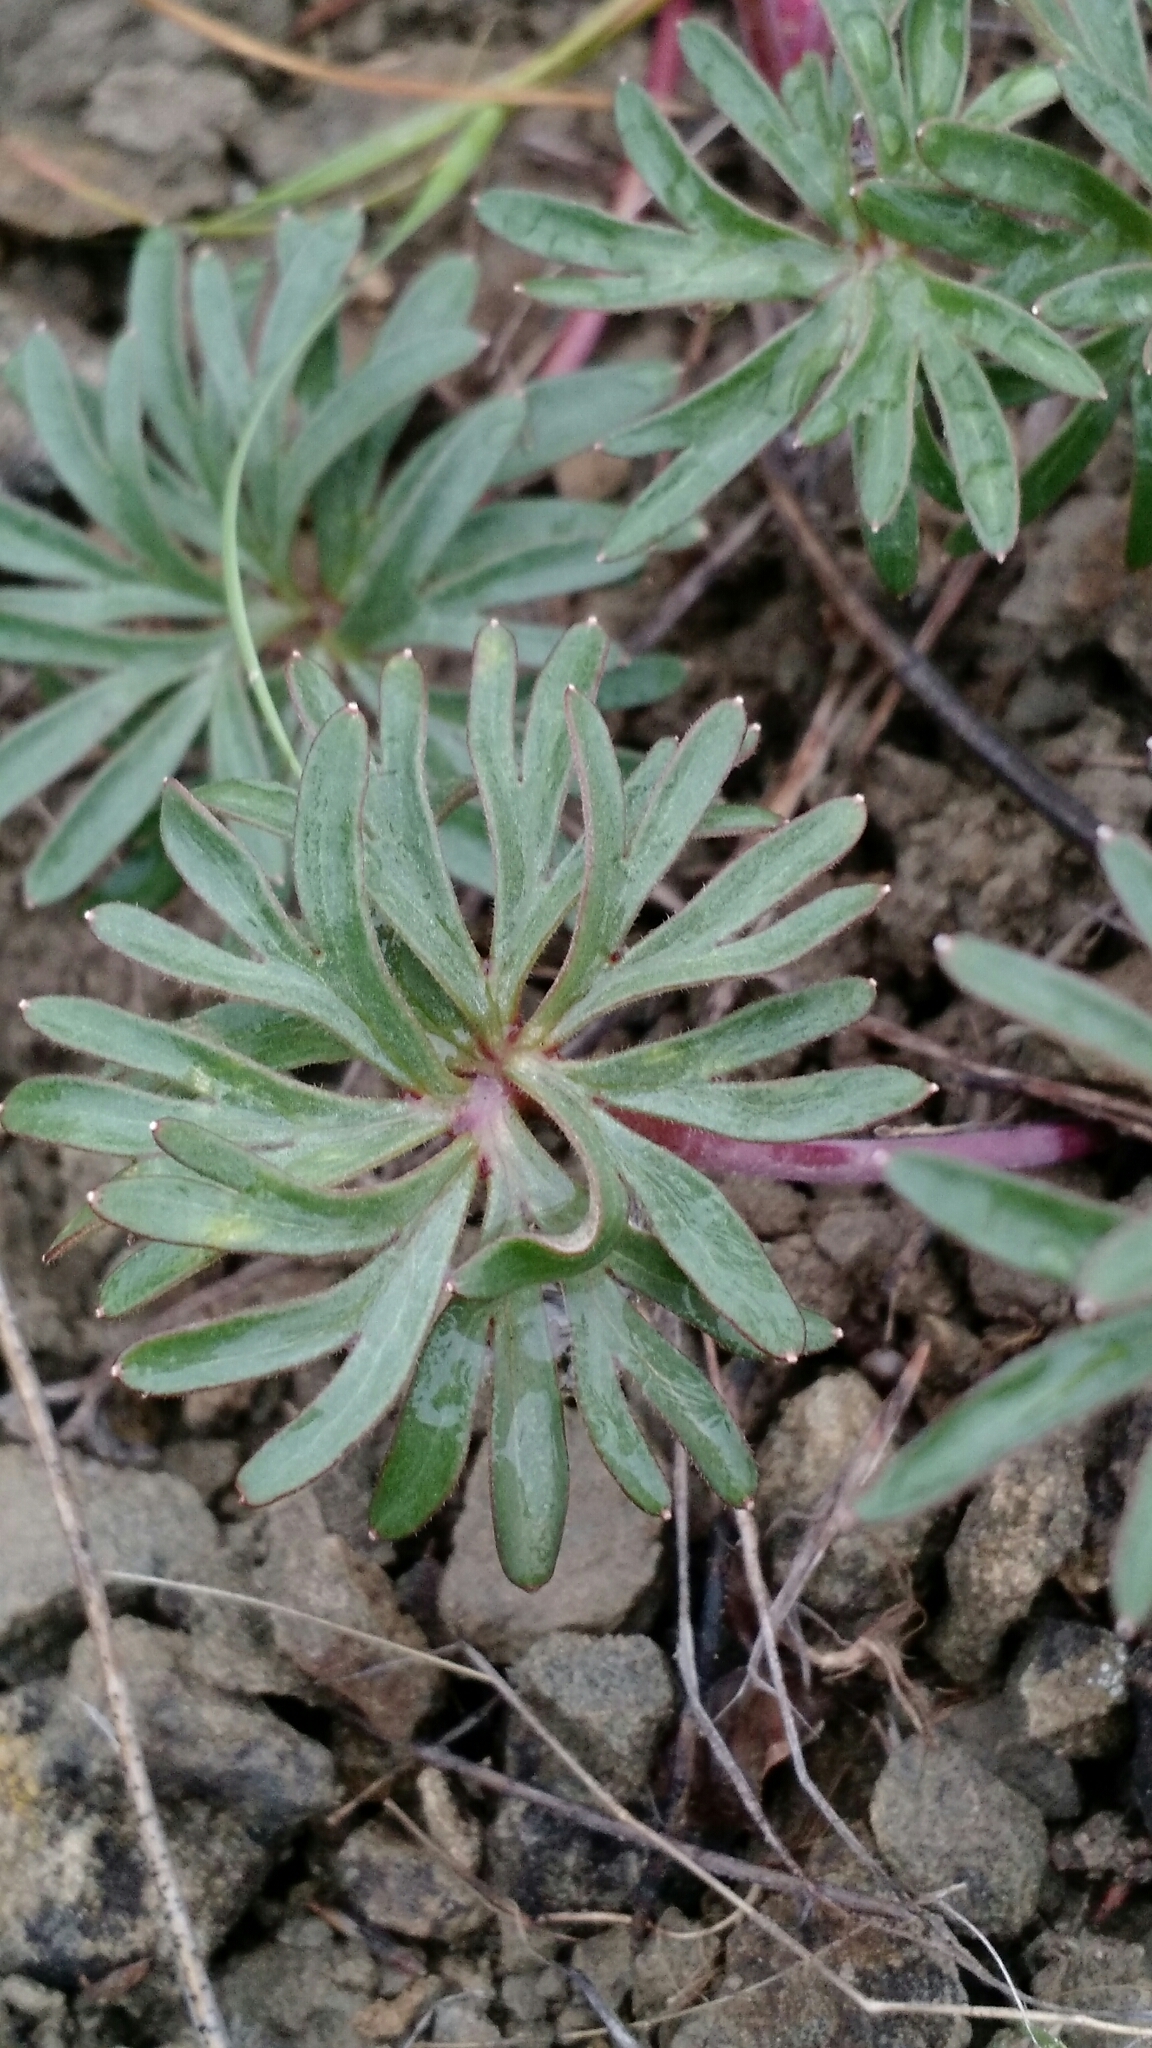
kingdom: Plantae
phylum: Tracheophyta
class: Magnoliopsida
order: Ranunculales
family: Ranunculaceae
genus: Delphinium
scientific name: Delphinium bicolor
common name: Low larkspur
